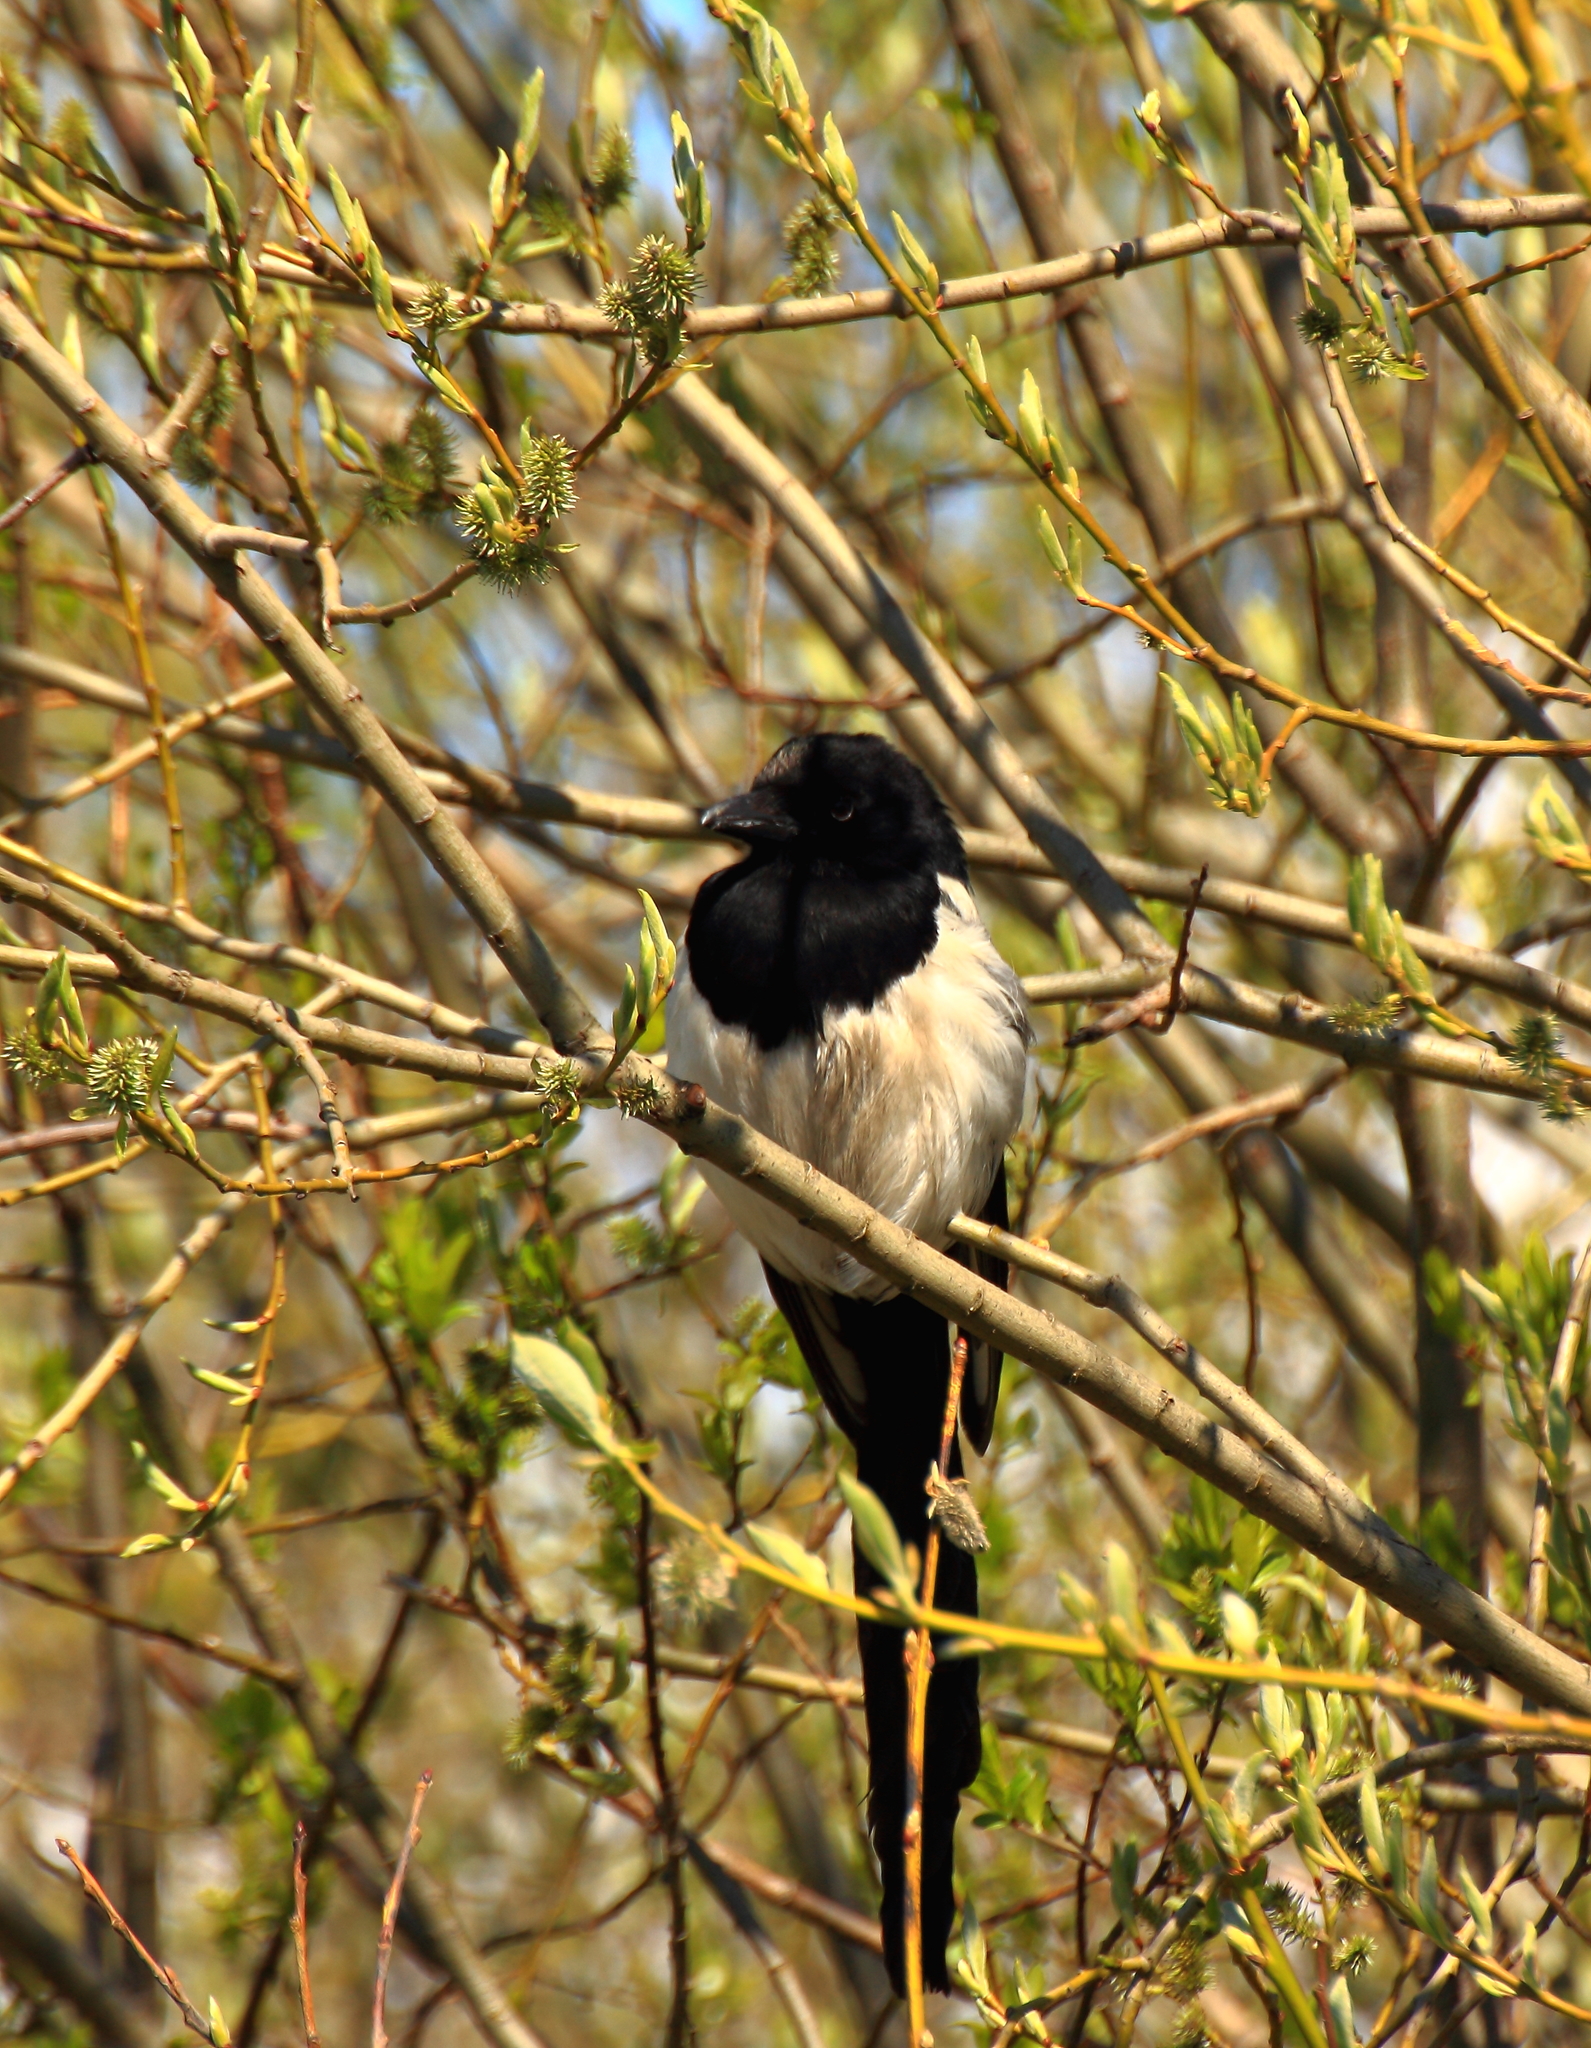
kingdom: Animalia
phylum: Chordata
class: Aves
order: Passeriformes
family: Corvidae
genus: Pica
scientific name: Pica pica
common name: Eurasian magpie
